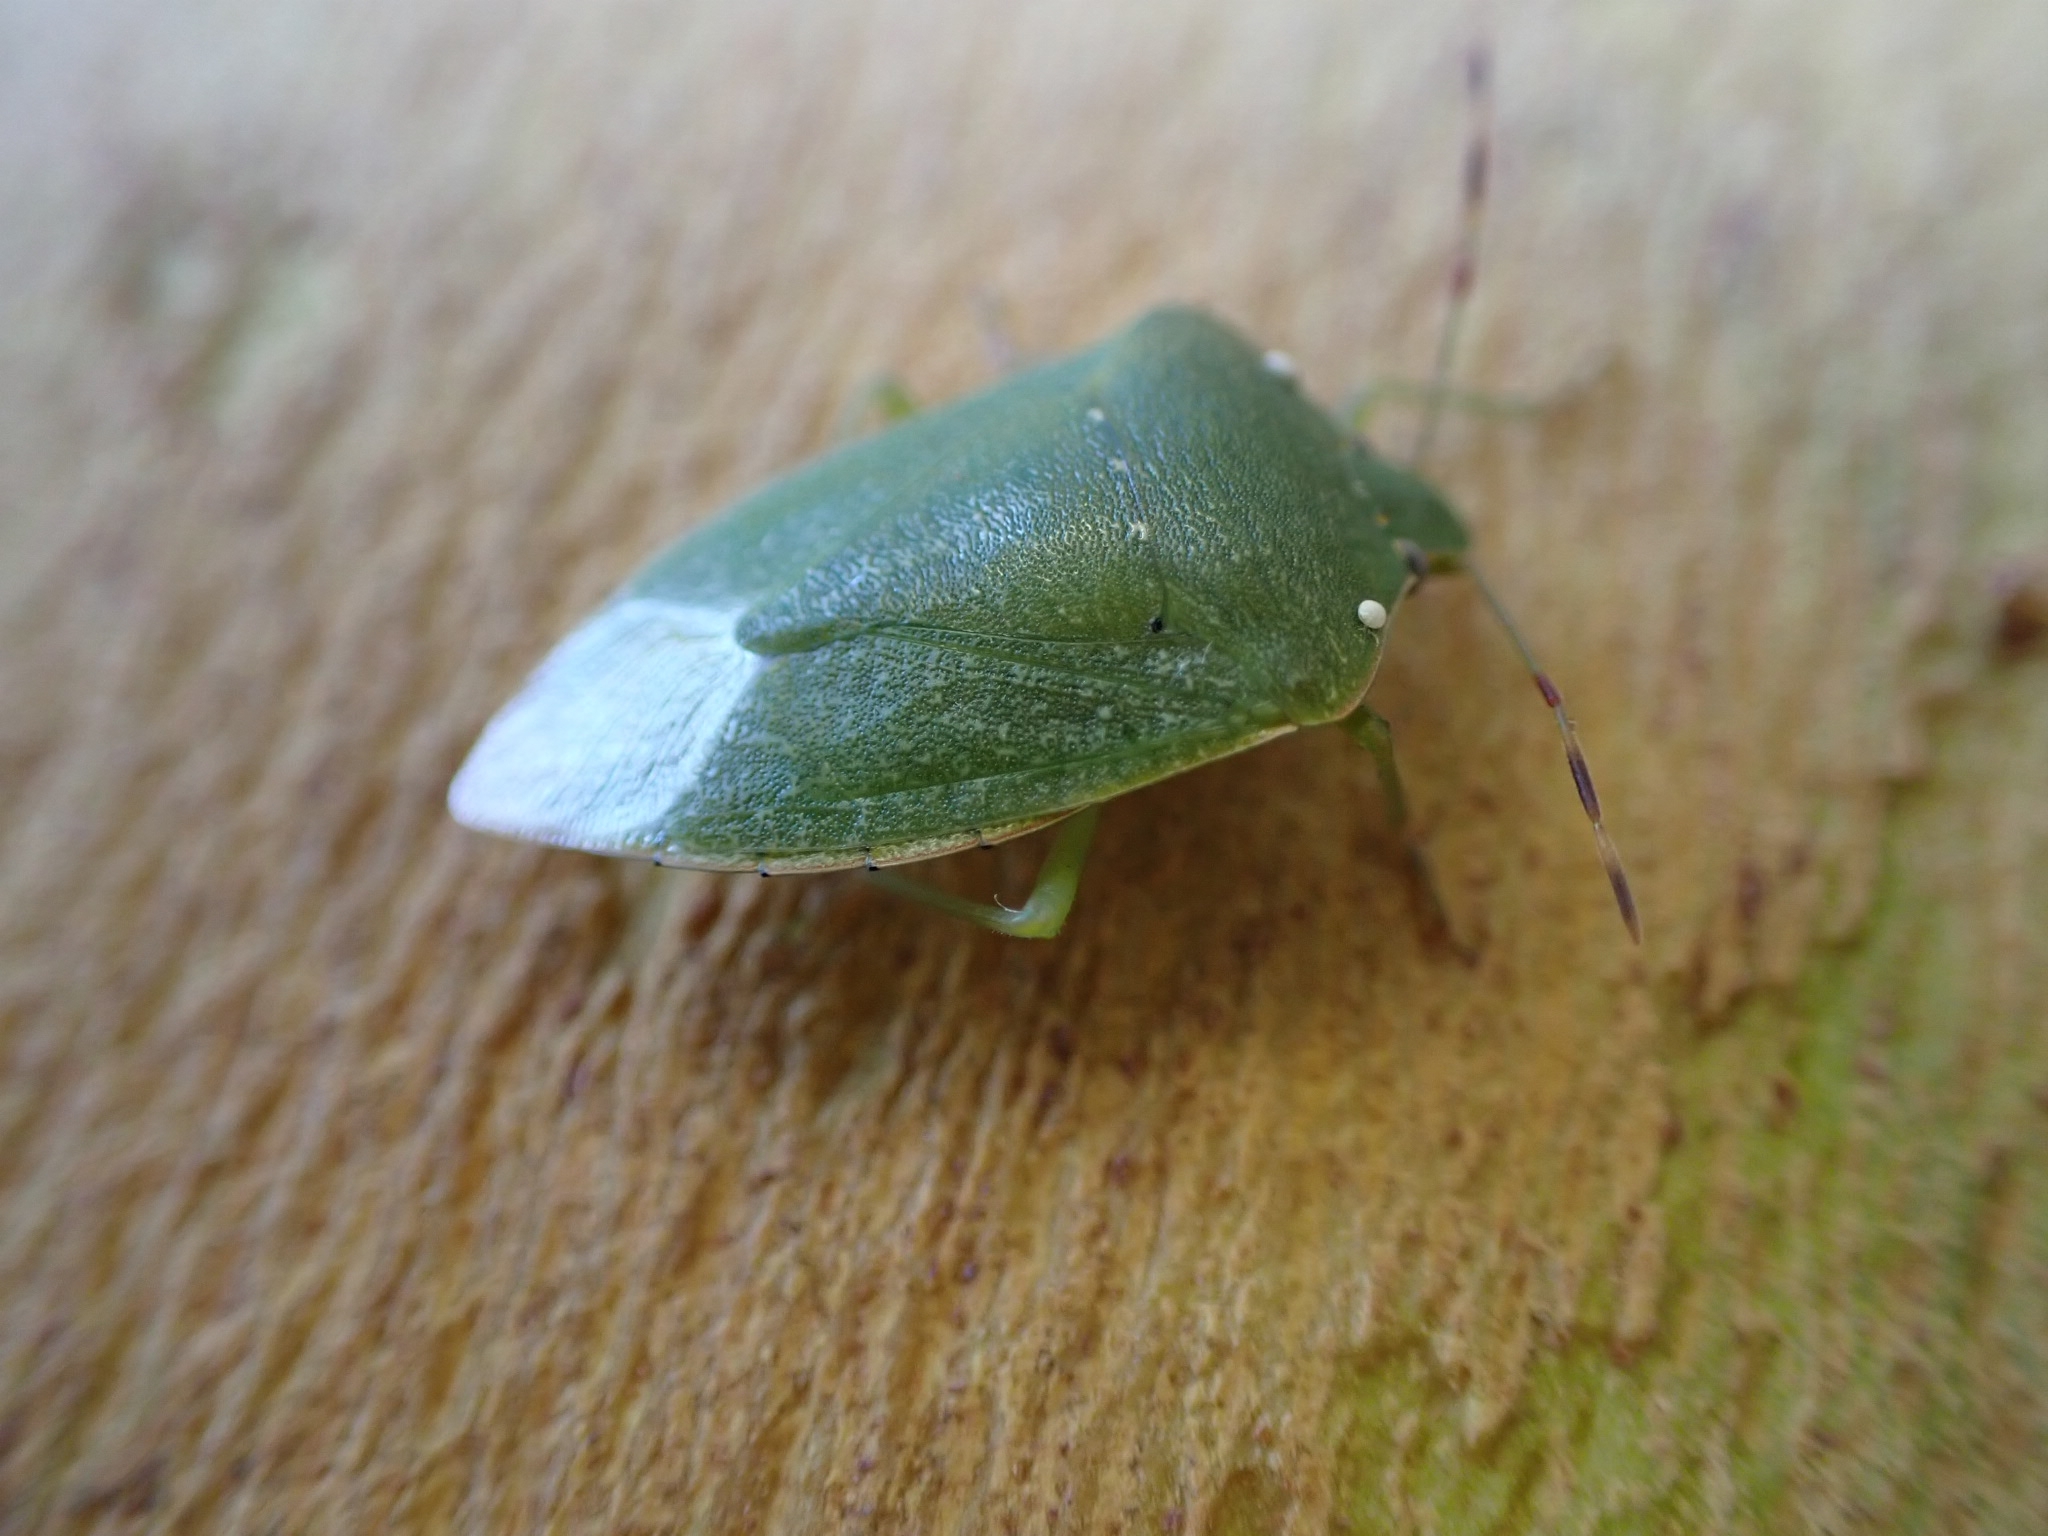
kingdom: Animalia
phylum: Arthropoda
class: Insecta
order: Hemiptera
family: Pentatomidae
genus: Nezara
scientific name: Nezara viridula
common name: Southern green stink bug
